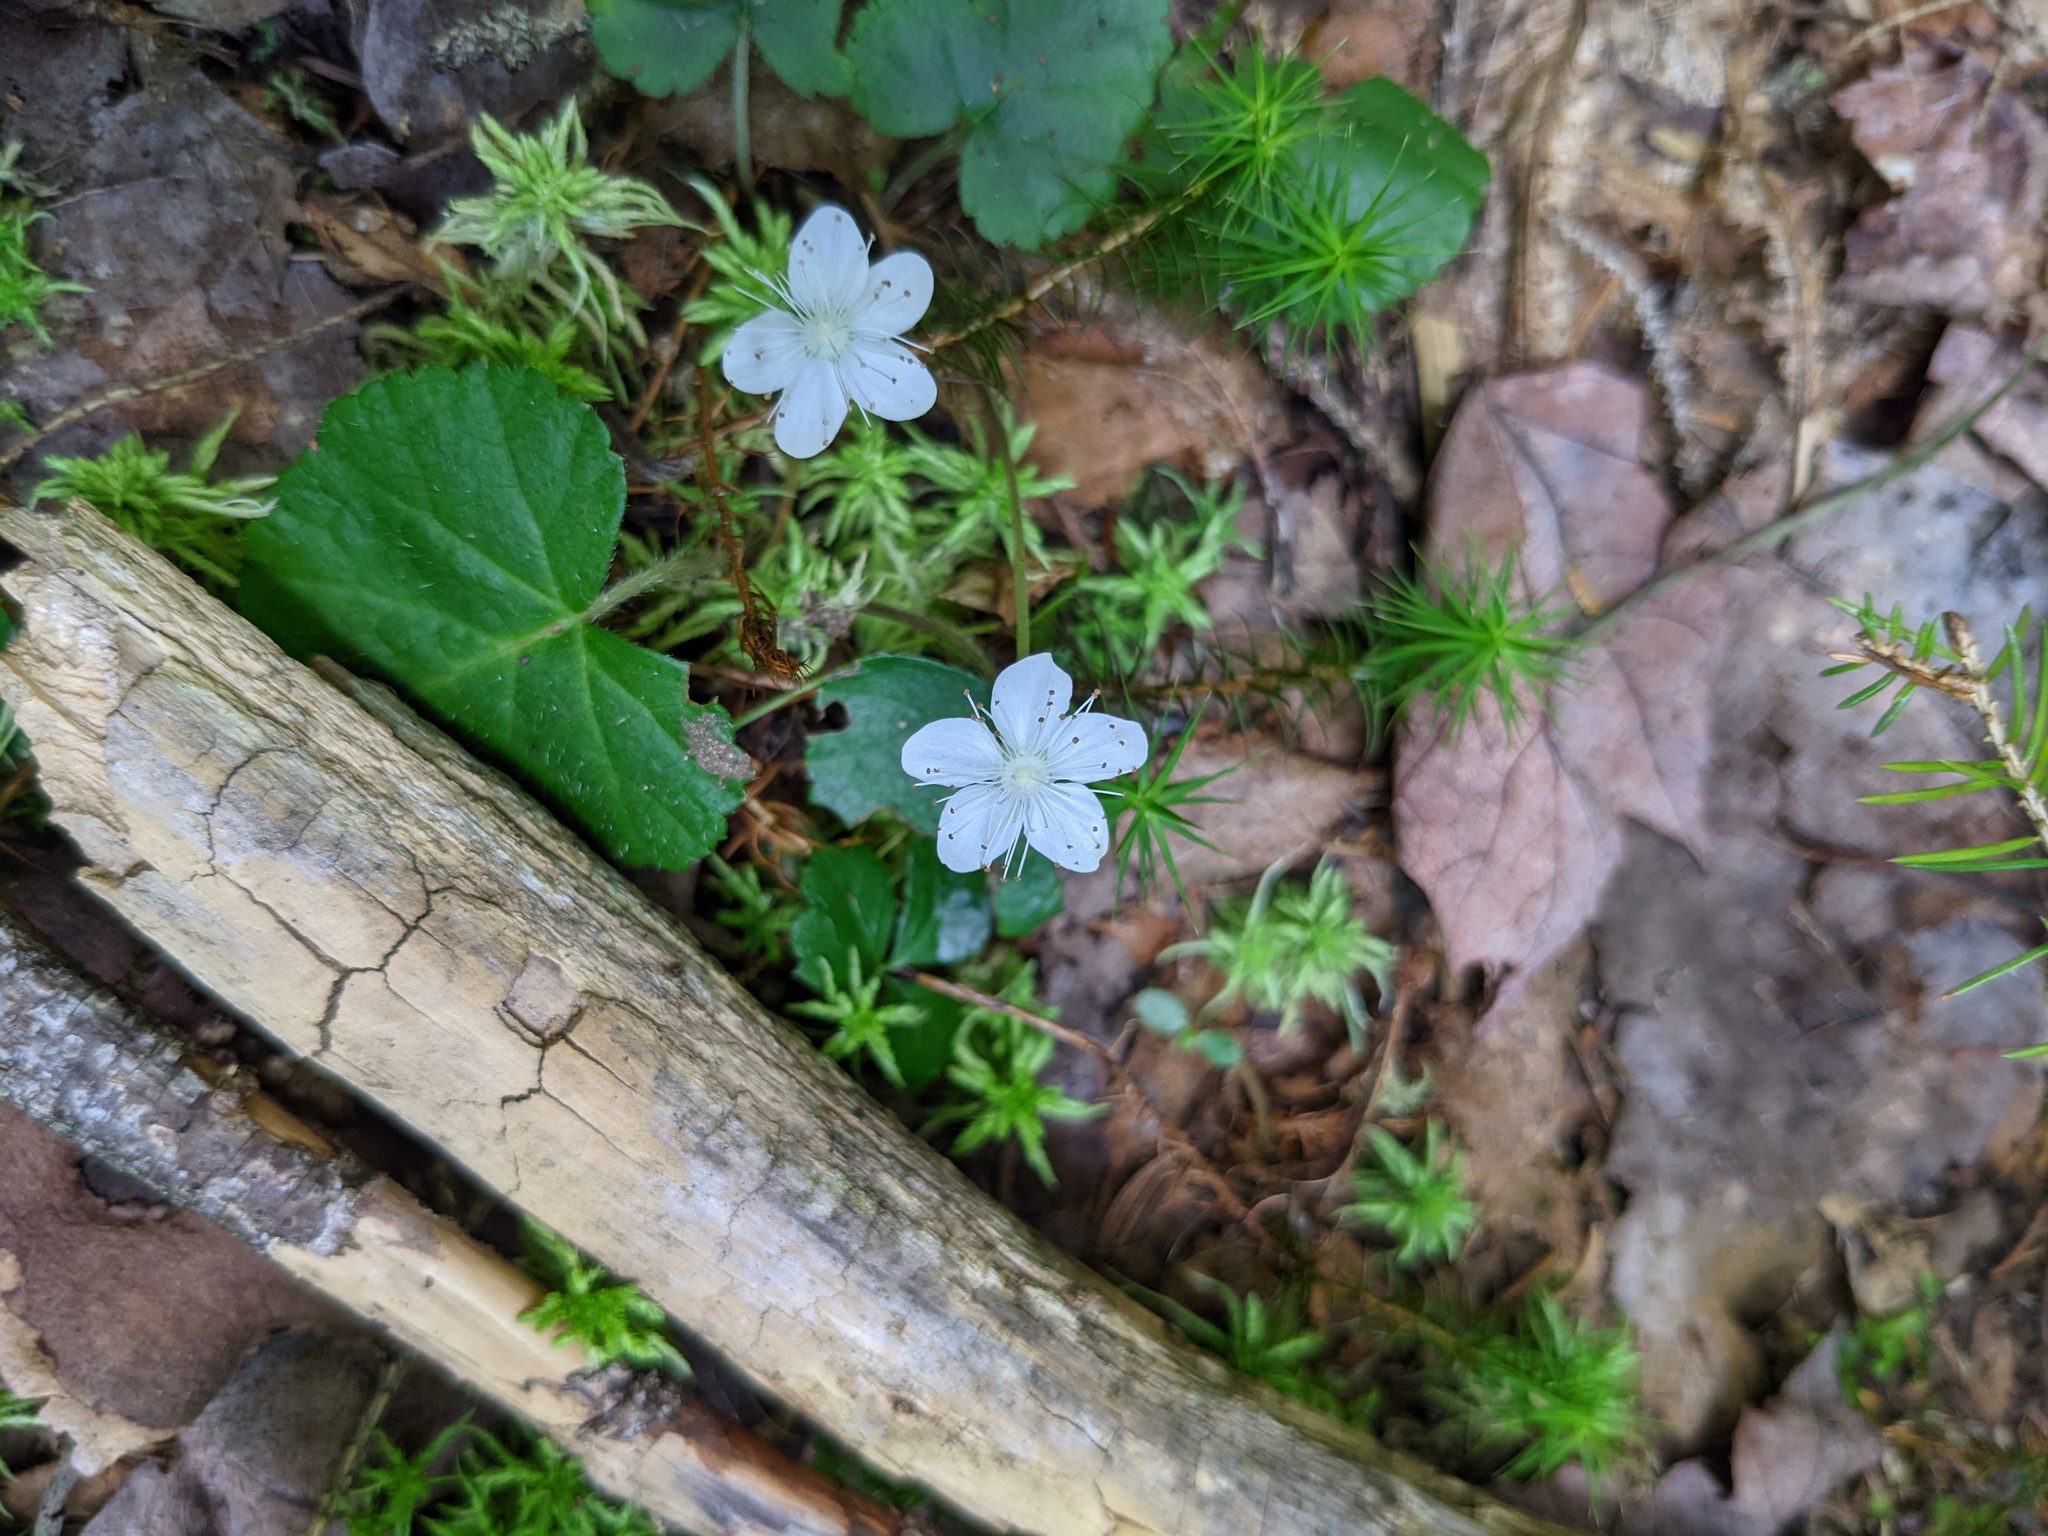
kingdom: Plantae
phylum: Tracheophyta
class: Magnoliopsida
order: Rosales
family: Rosaceae
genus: Dalibarda
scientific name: Dalibarda repens
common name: Dewdrop
